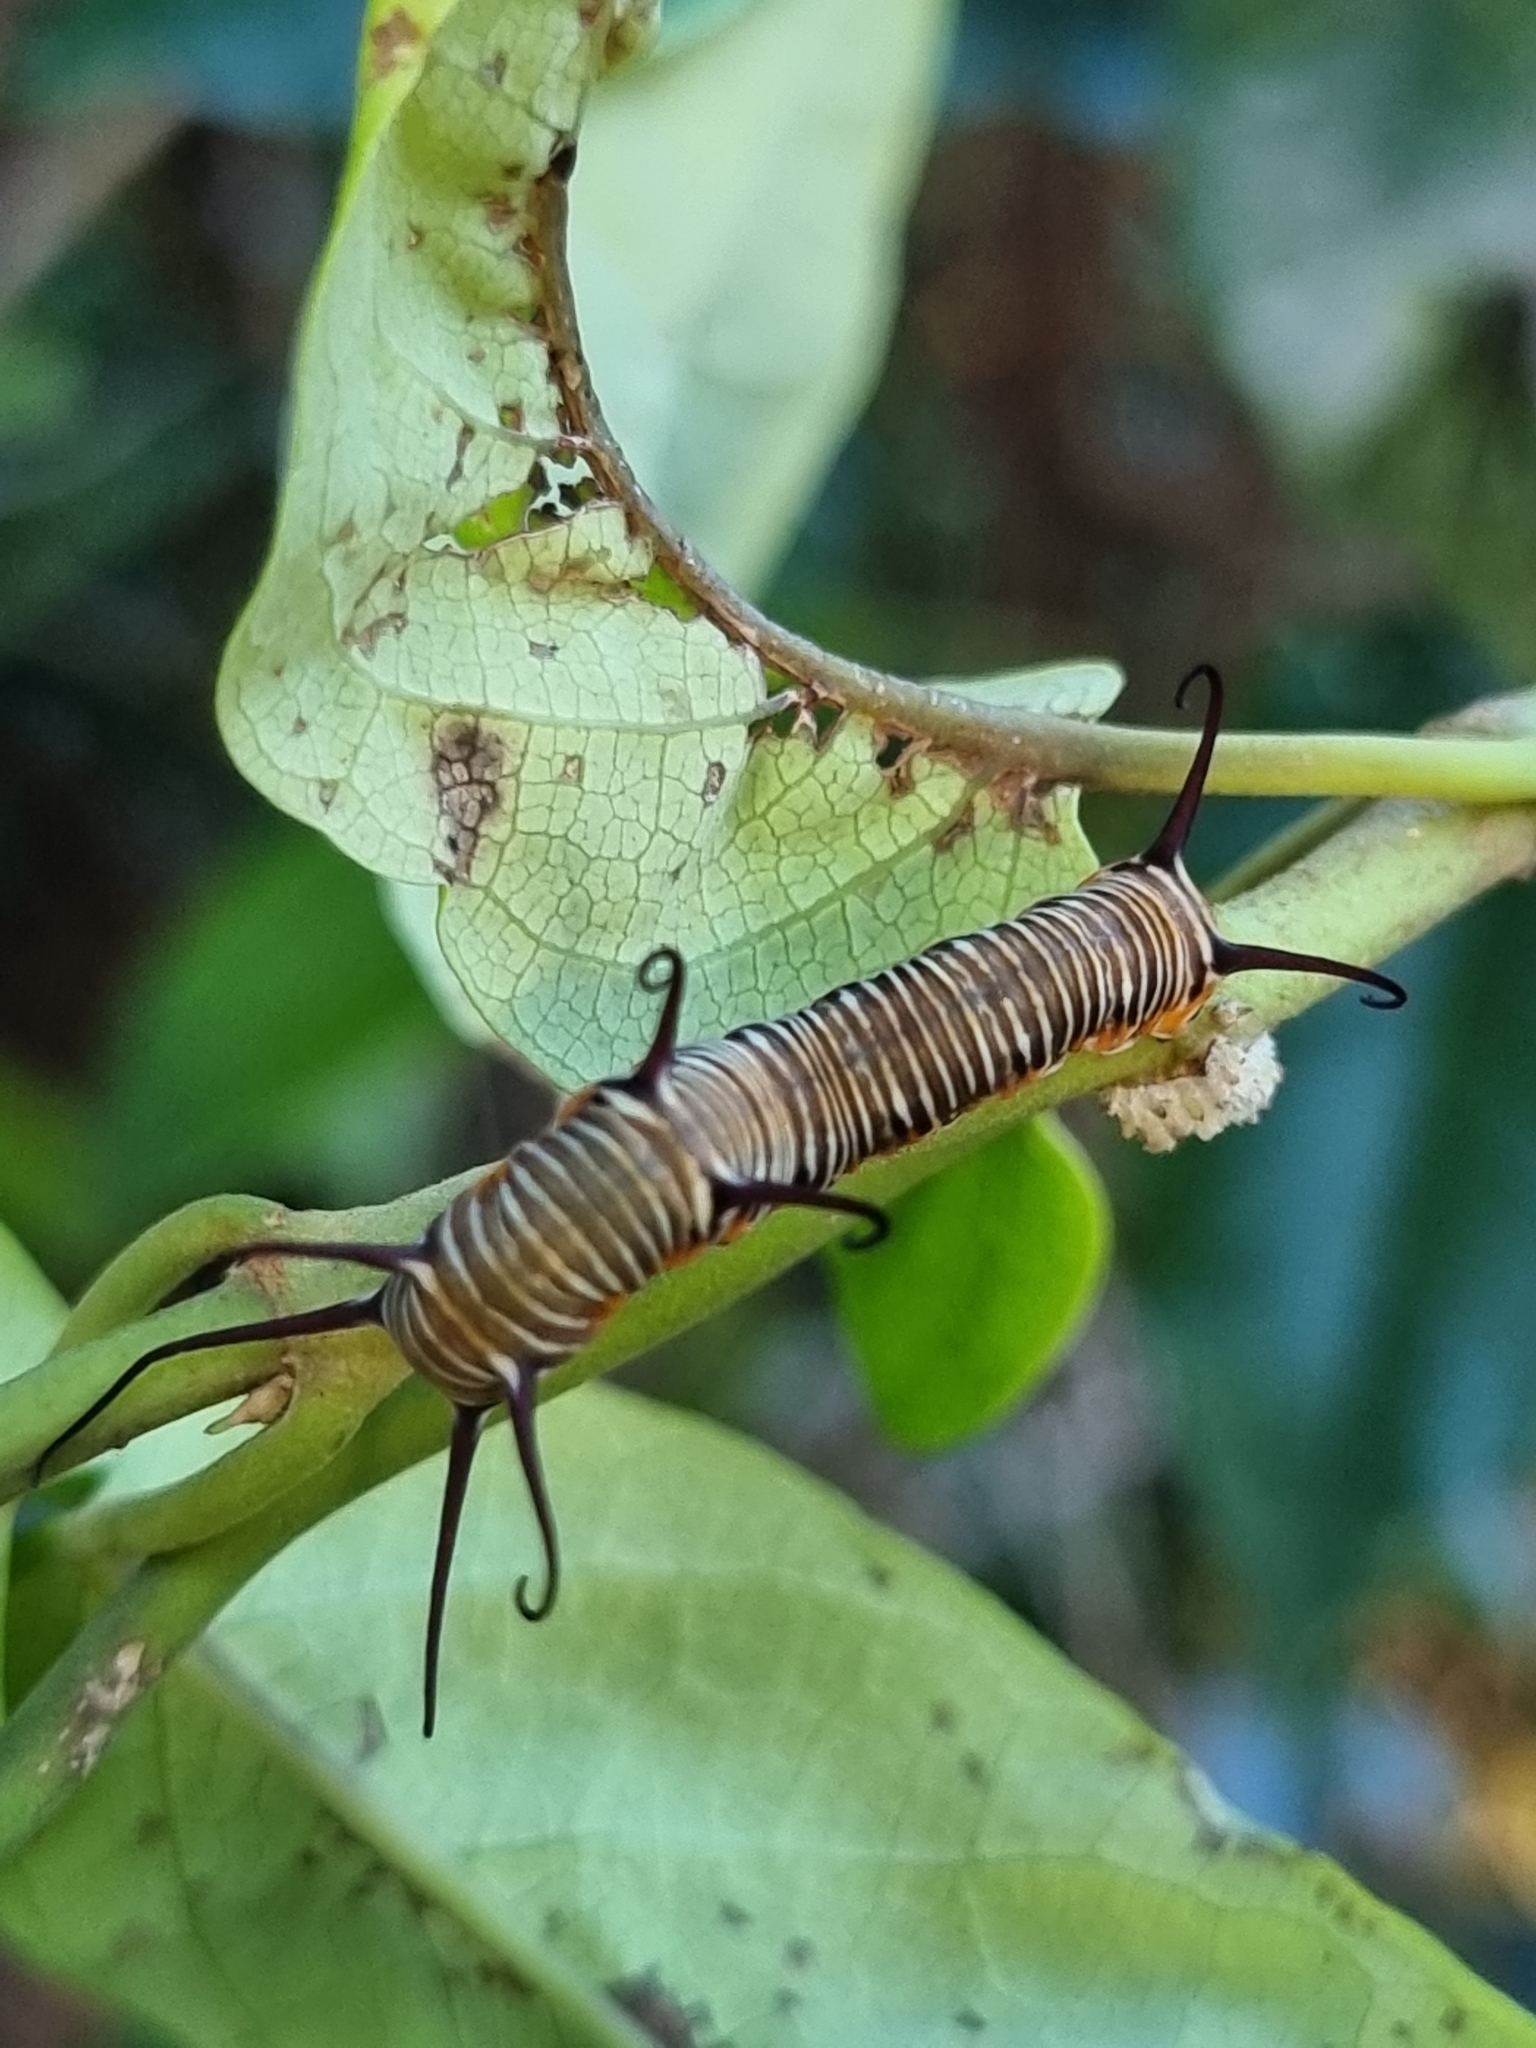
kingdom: Animalia
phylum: Arthropoda
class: Insecta
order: Lepidoptera
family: Nymphalidae
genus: Euploea
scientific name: Euploea core
